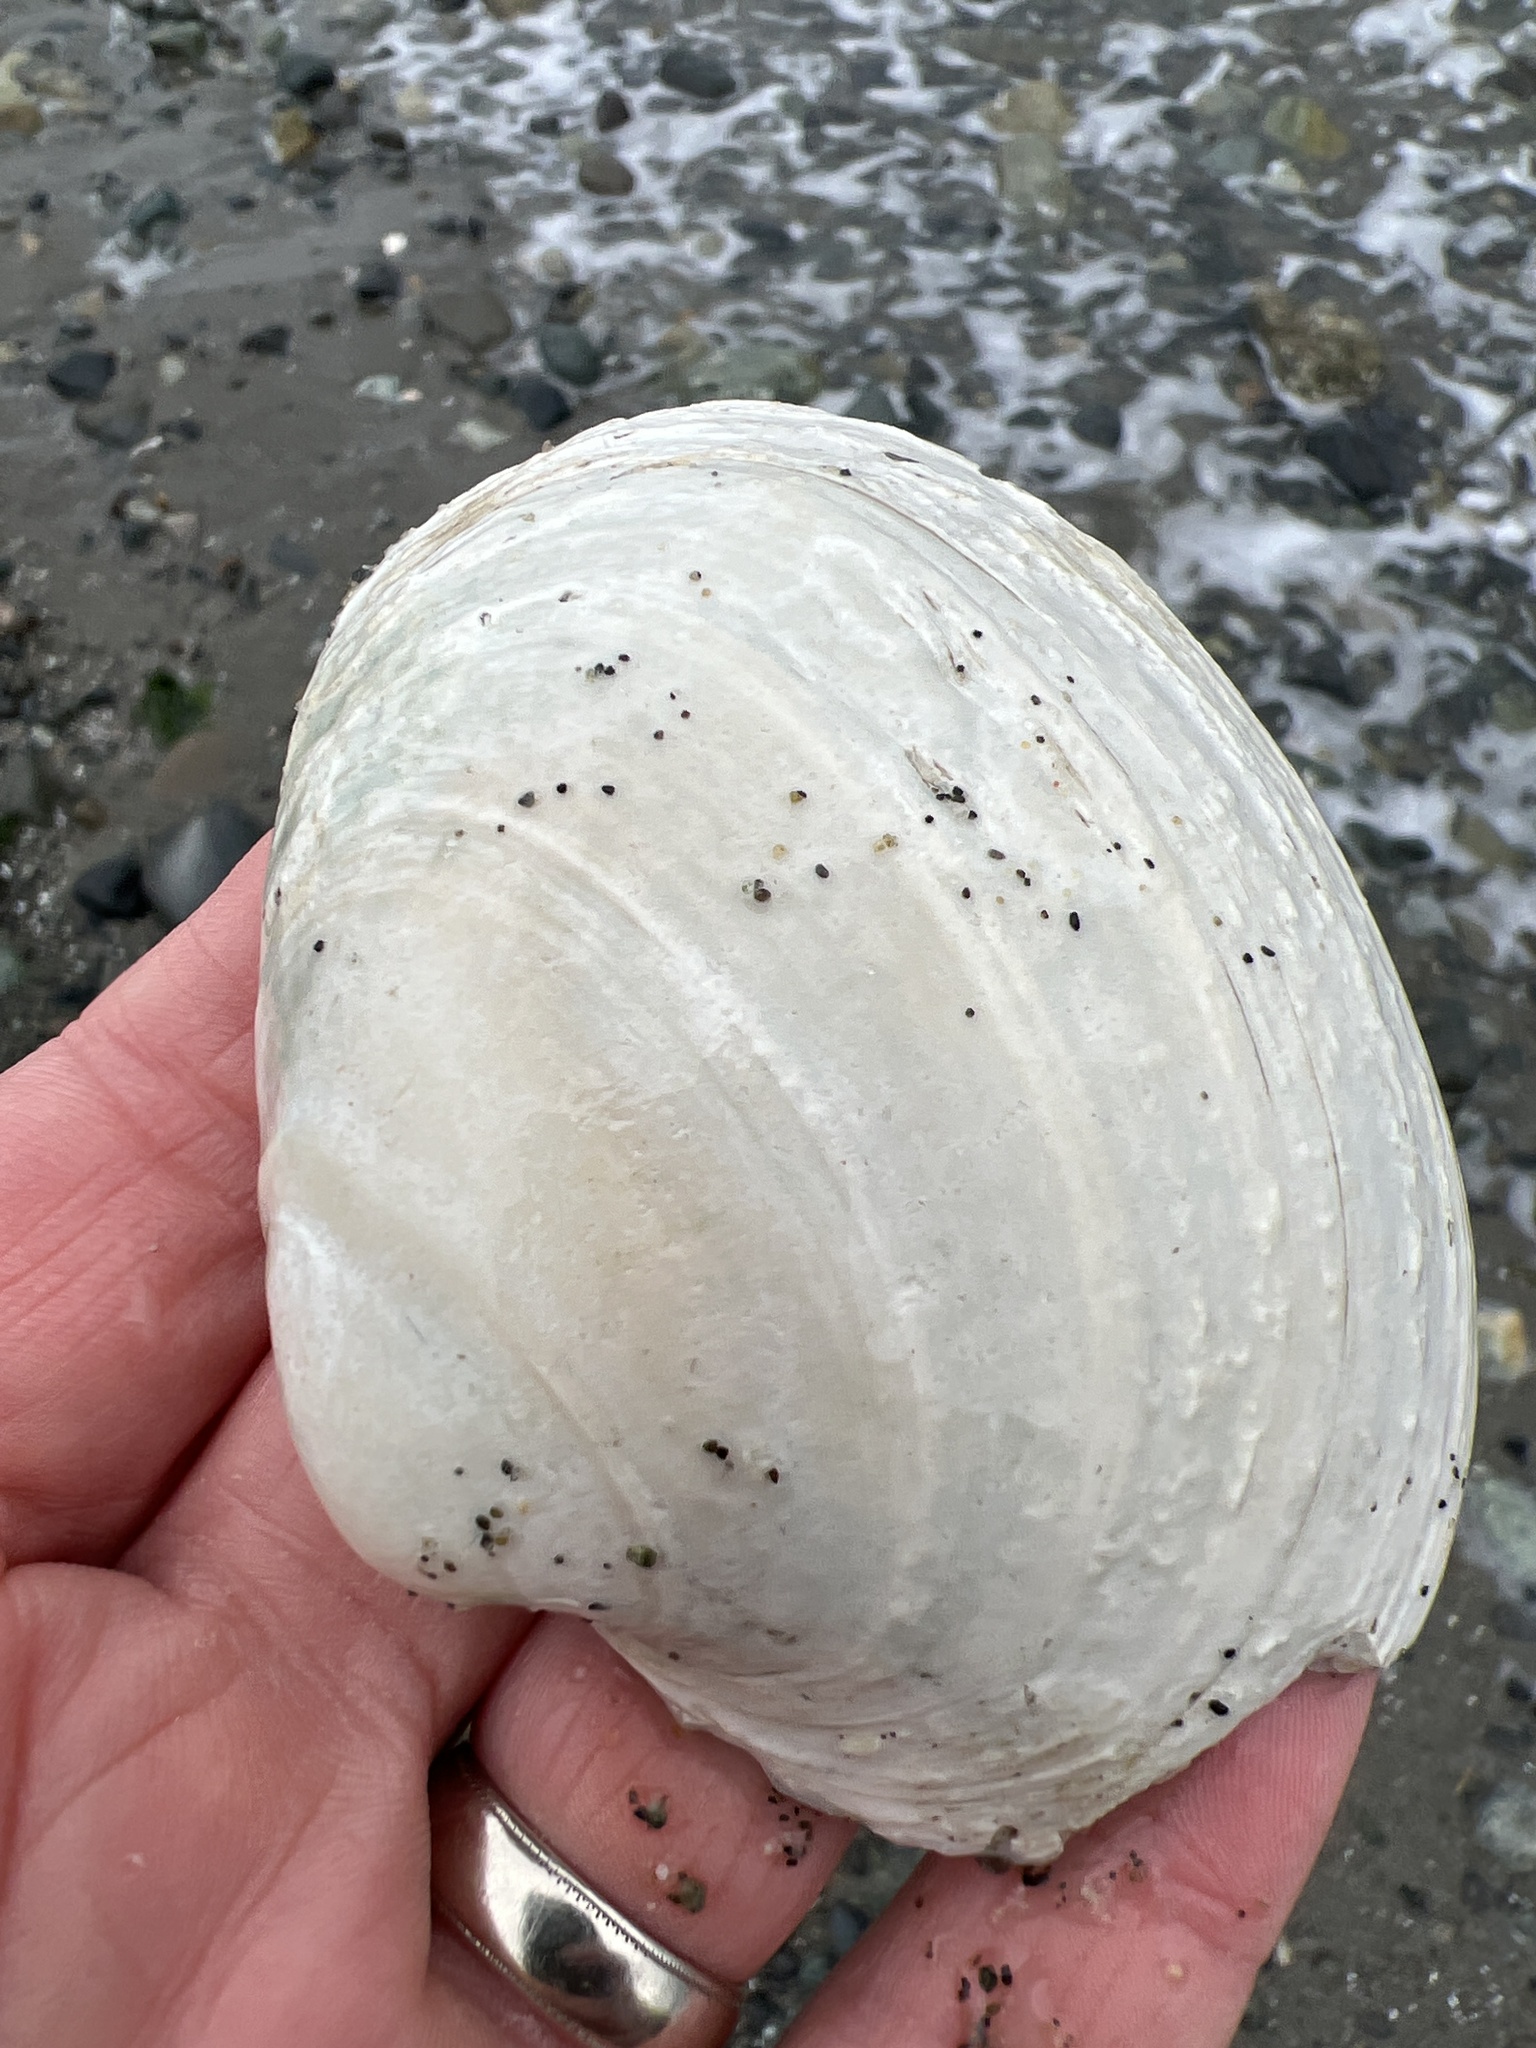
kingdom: Animalia
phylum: Mollusca
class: Bivalvia
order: Venerida
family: Veneridae
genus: Saxidomus
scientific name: Saxidomus gigantea
